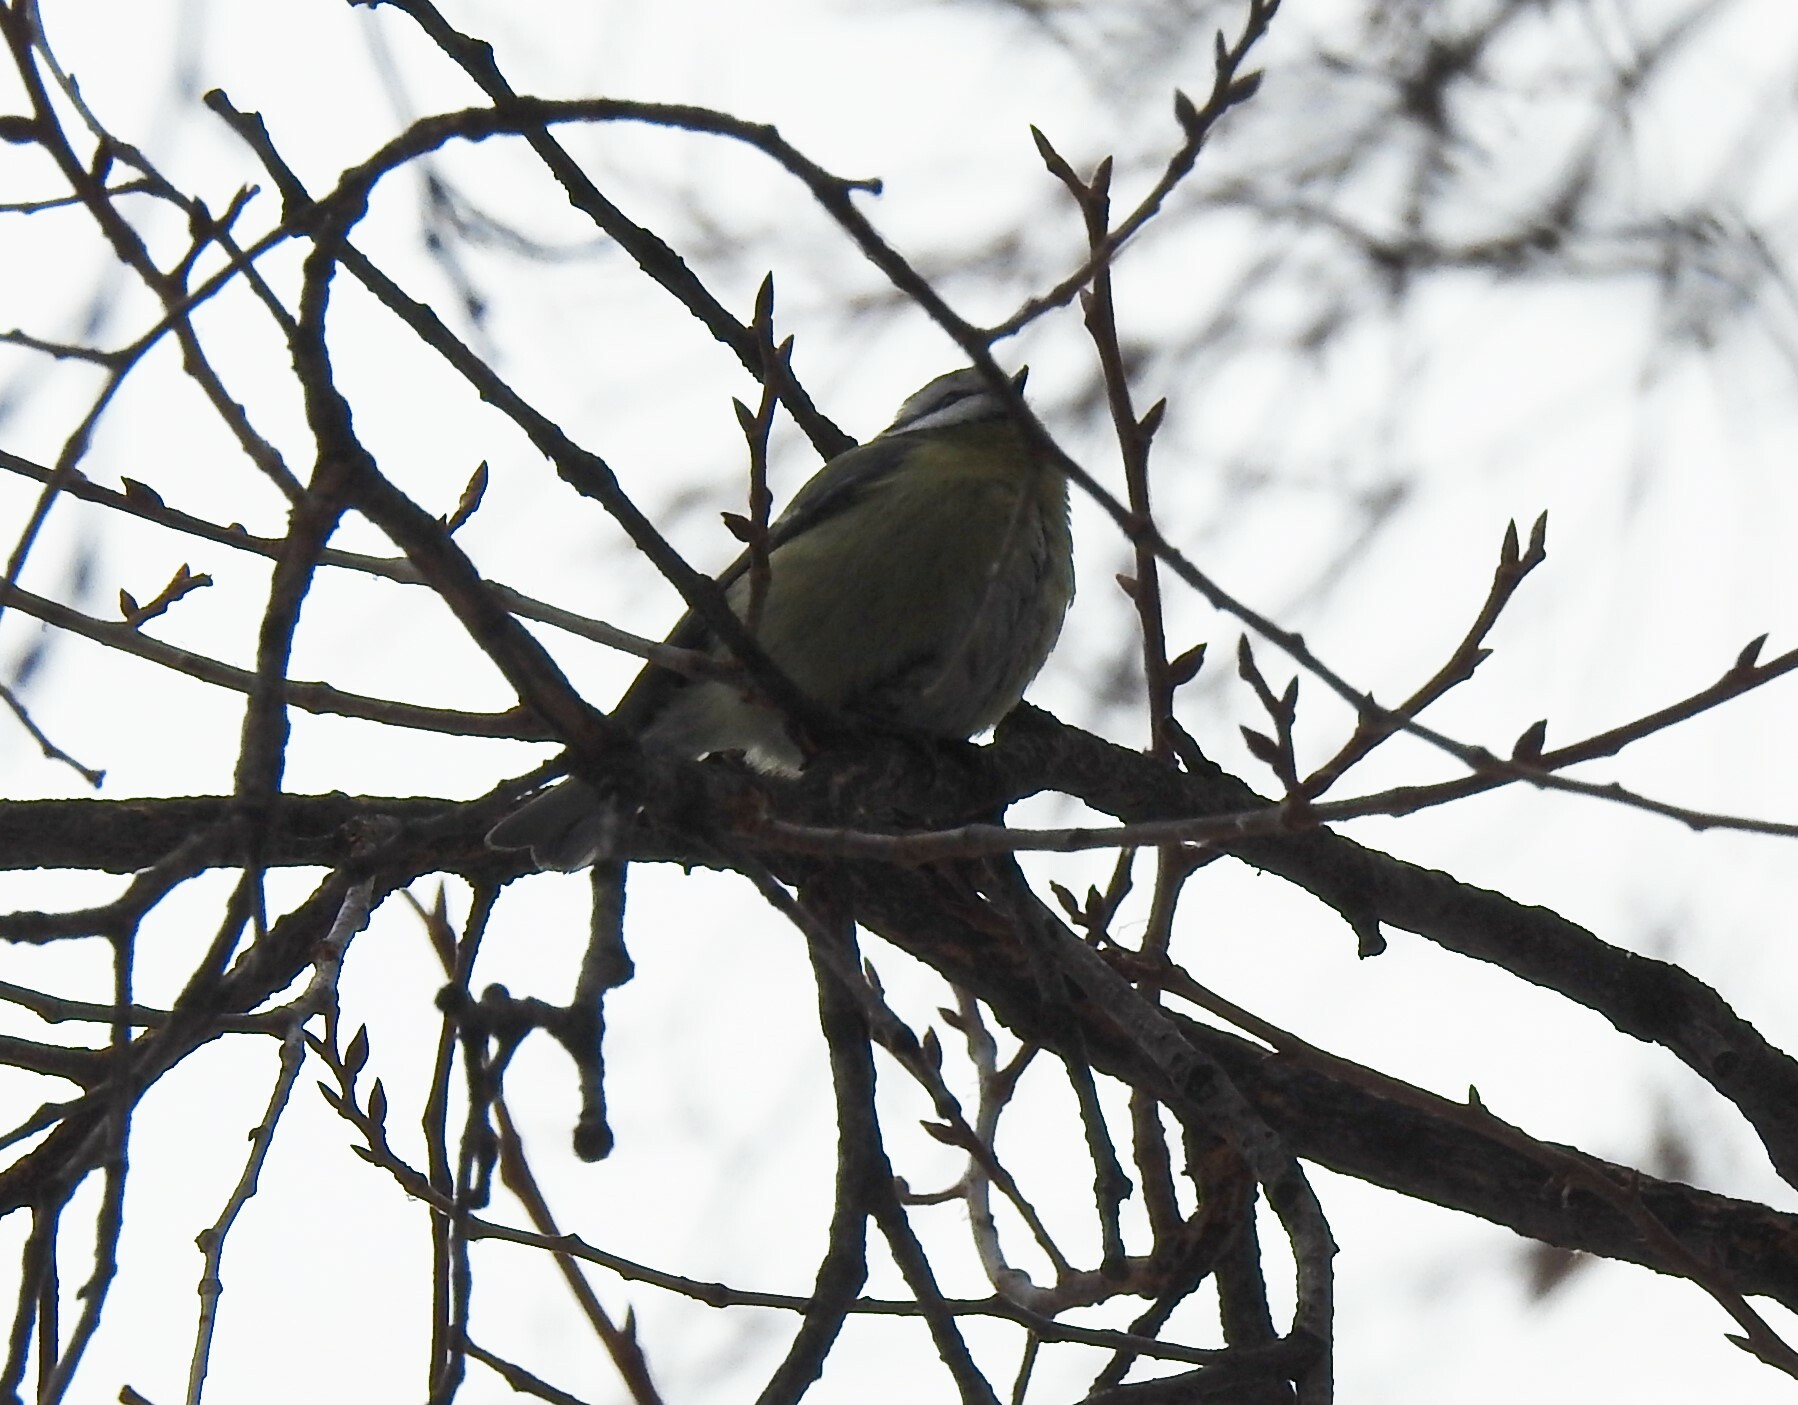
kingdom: Animalia
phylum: Chordata
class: Aves
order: Passeriformes
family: Paridae
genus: Cyanistes
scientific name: Cyanistes caeruleus
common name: Eurasian blue tit
